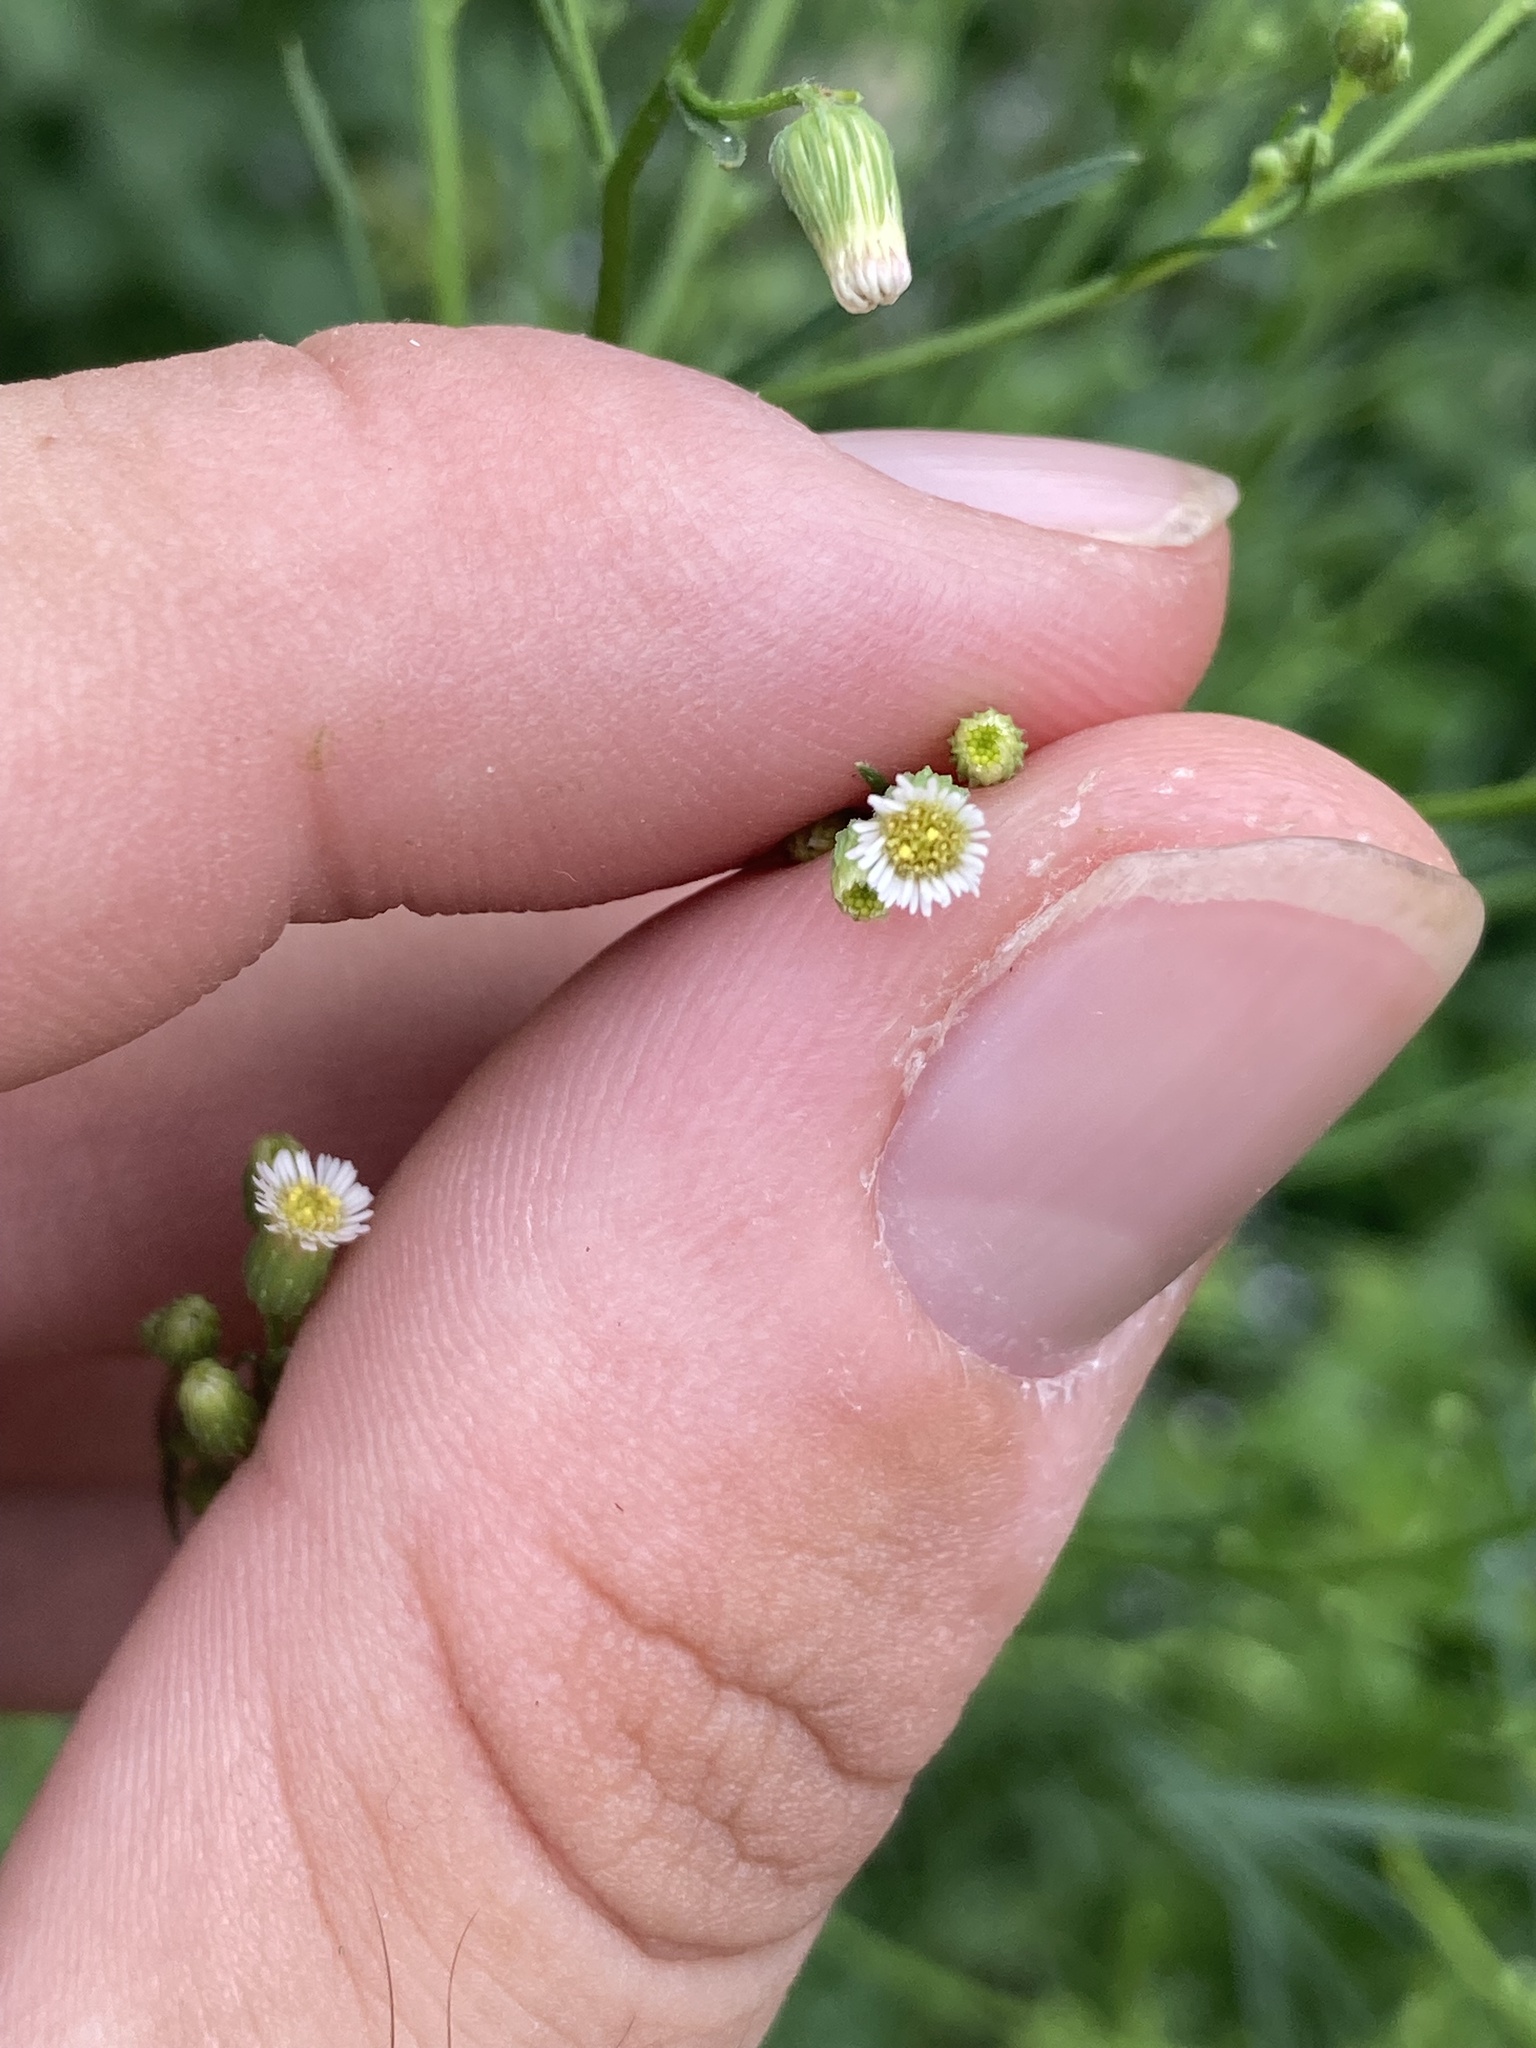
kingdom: Plantae
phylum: Tracheophyta
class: Magnoliopsida
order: Asterales
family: Asteraceae
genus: Erigeron
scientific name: Erigeron canadensis
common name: Canadian fleabane
